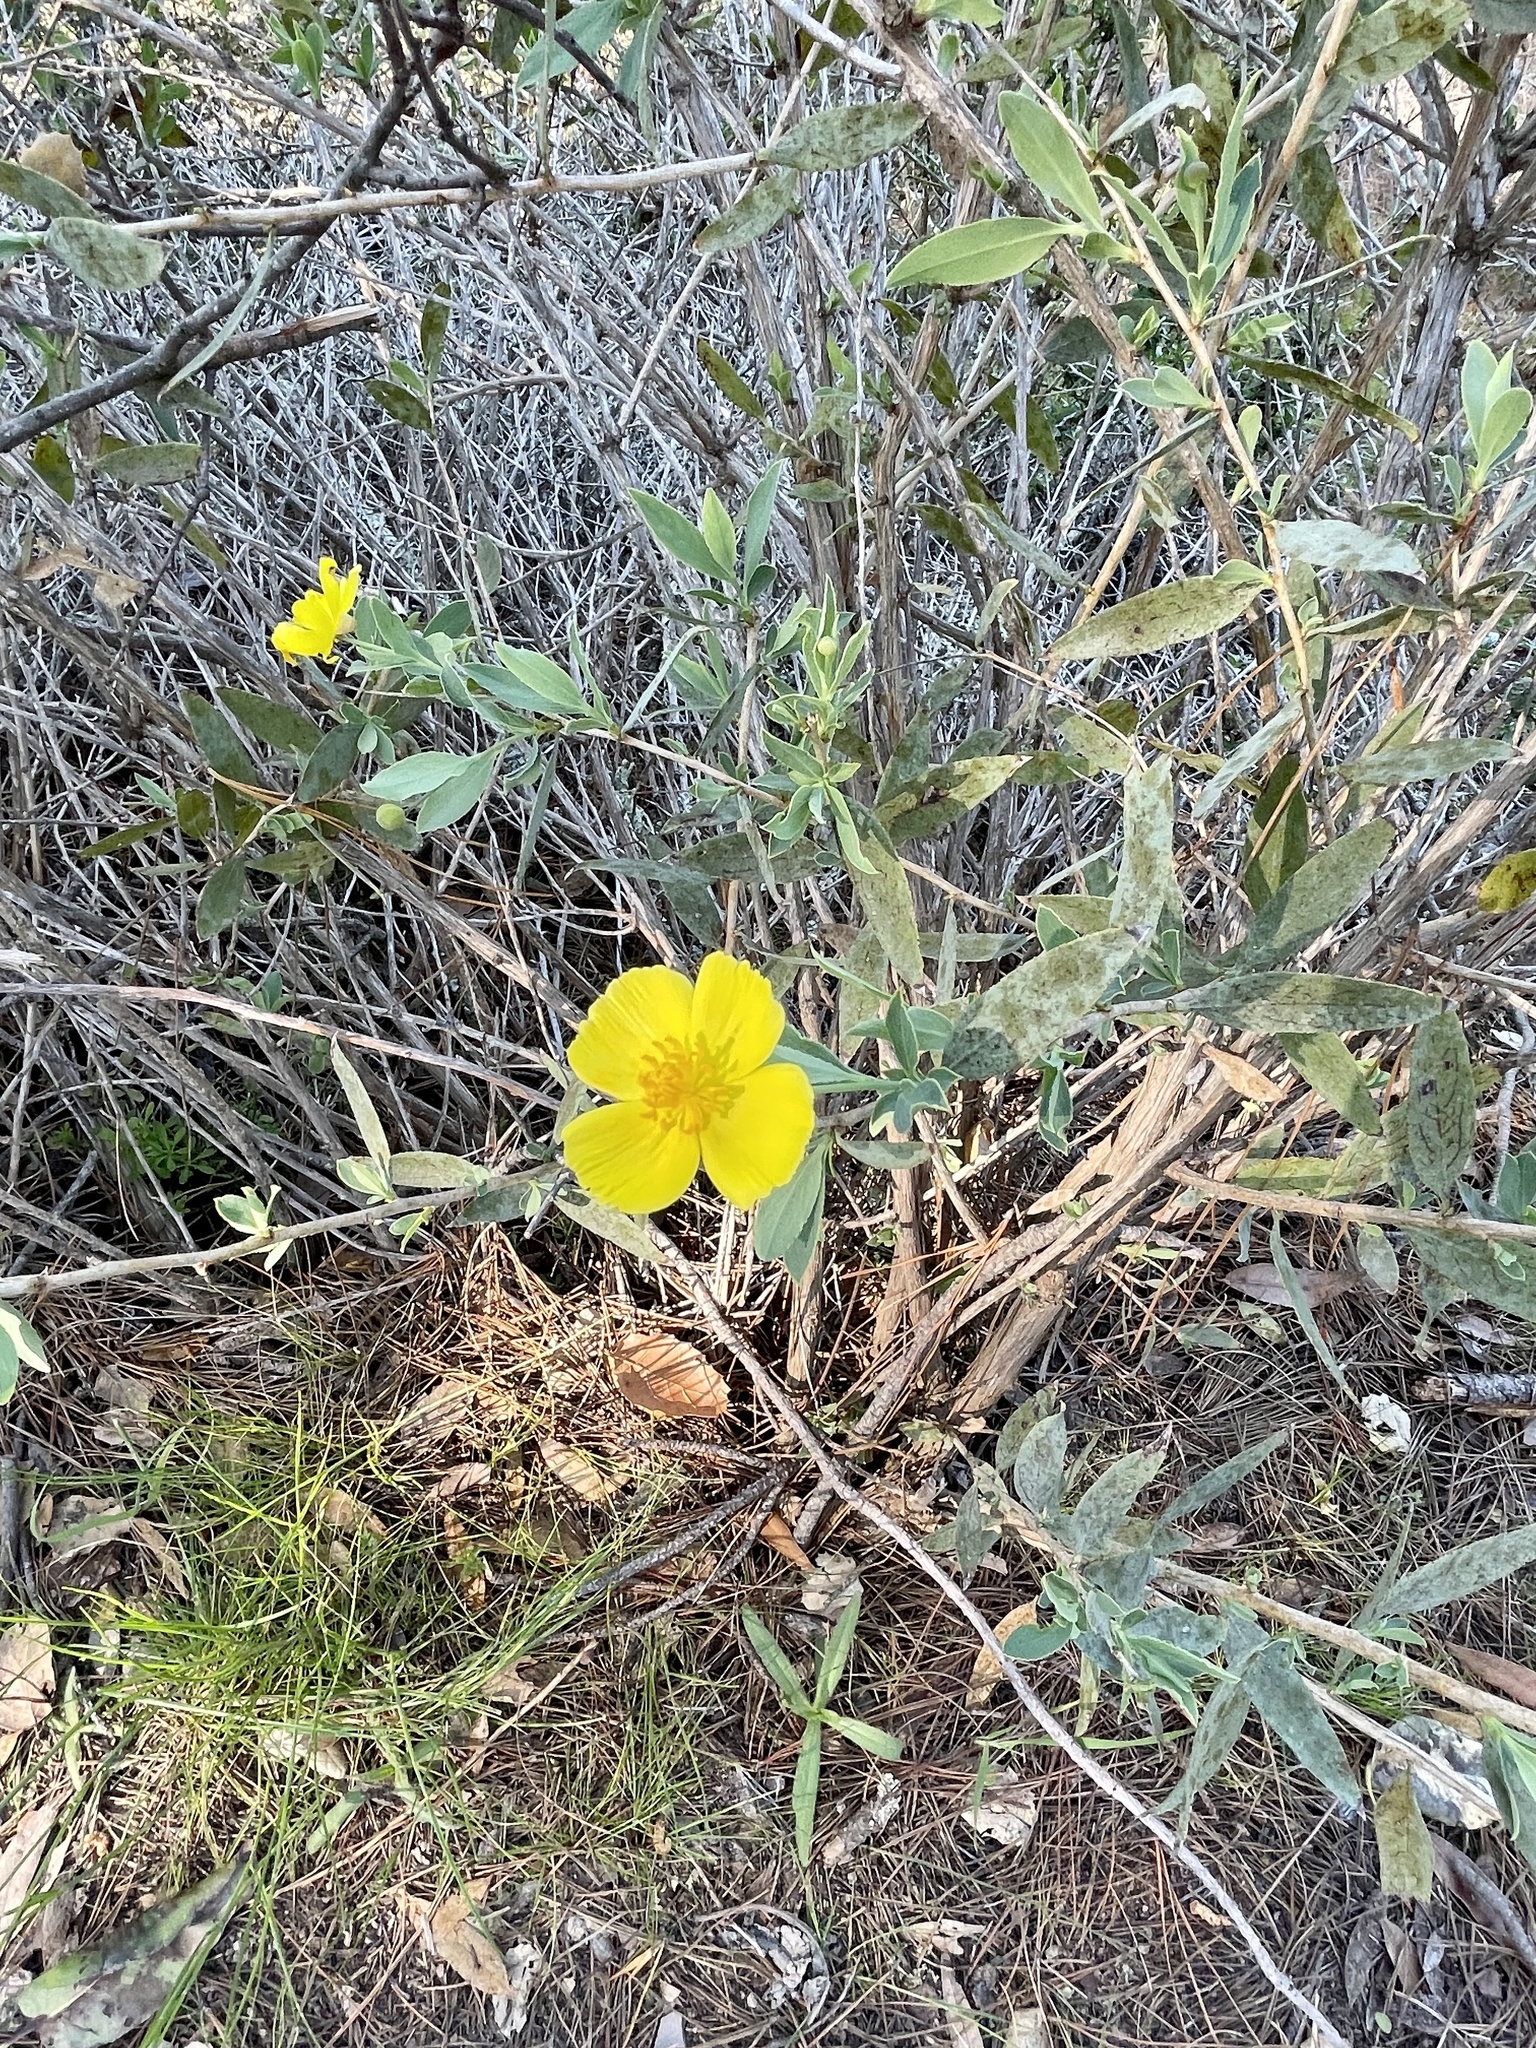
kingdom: Plantae
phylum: Tracheophyta
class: Magnoliopsida
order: Ranunculales
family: Papaveraceae
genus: Dendromecon
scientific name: Dendromecon rigida
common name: Tree poppy
